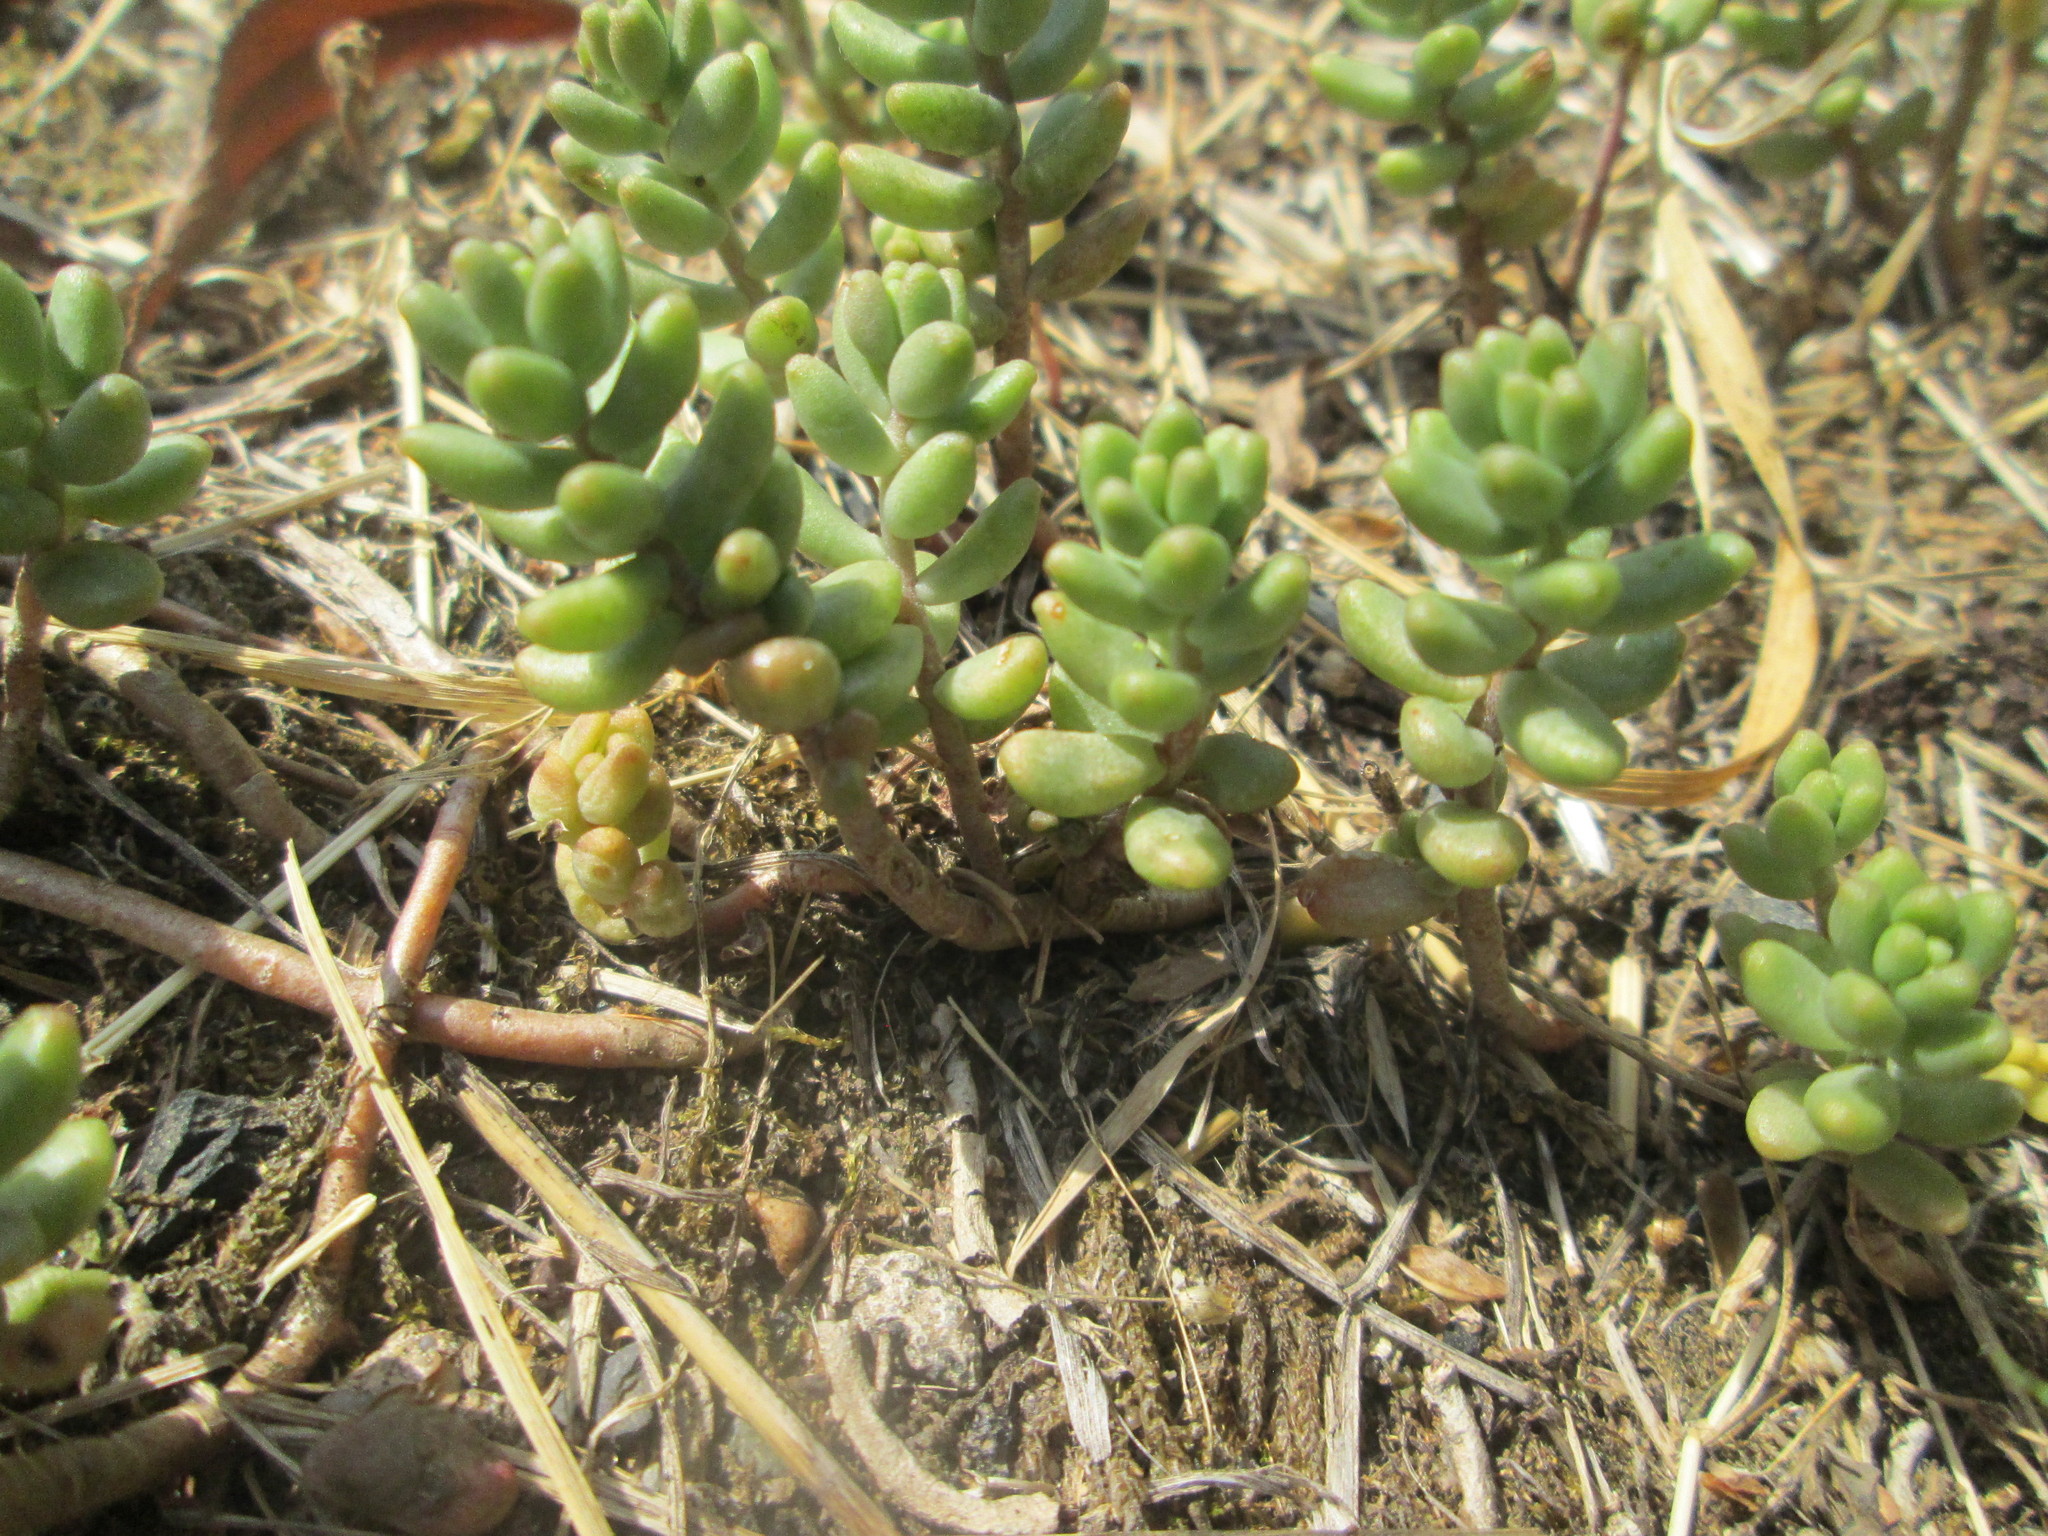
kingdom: Plantae
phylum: Tracheophyta
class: Magnoliopsida
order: Saxifragales
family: Crassulaceae
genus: Sedum
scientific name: Sedum album
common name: White stonecrop
